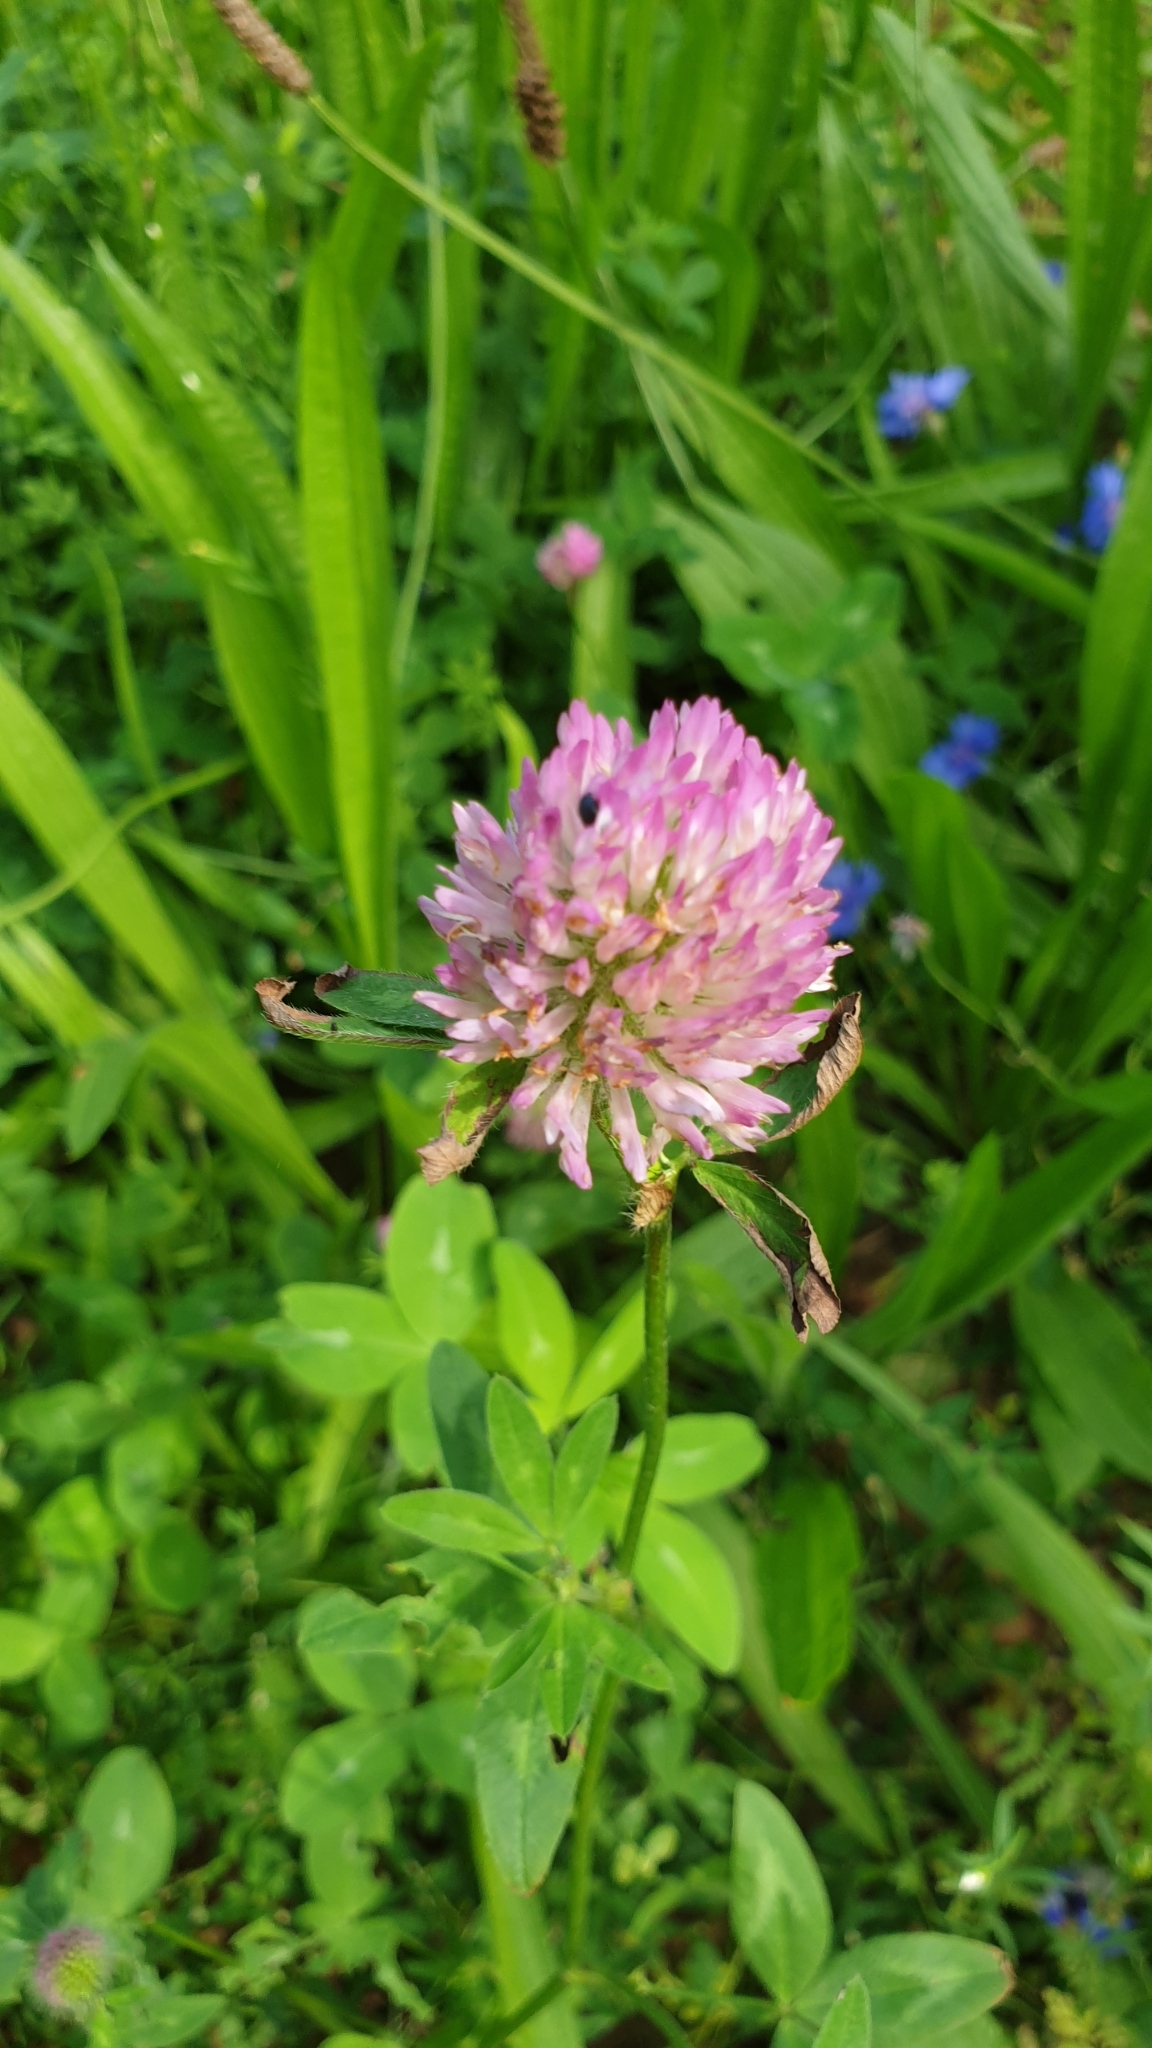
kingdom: Plantae
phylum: Tracheophyta
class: Magnoliopsida
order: Fabales
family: Fabaceae
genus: Trifolium
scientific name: Trifolium pratense
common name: Red clover
